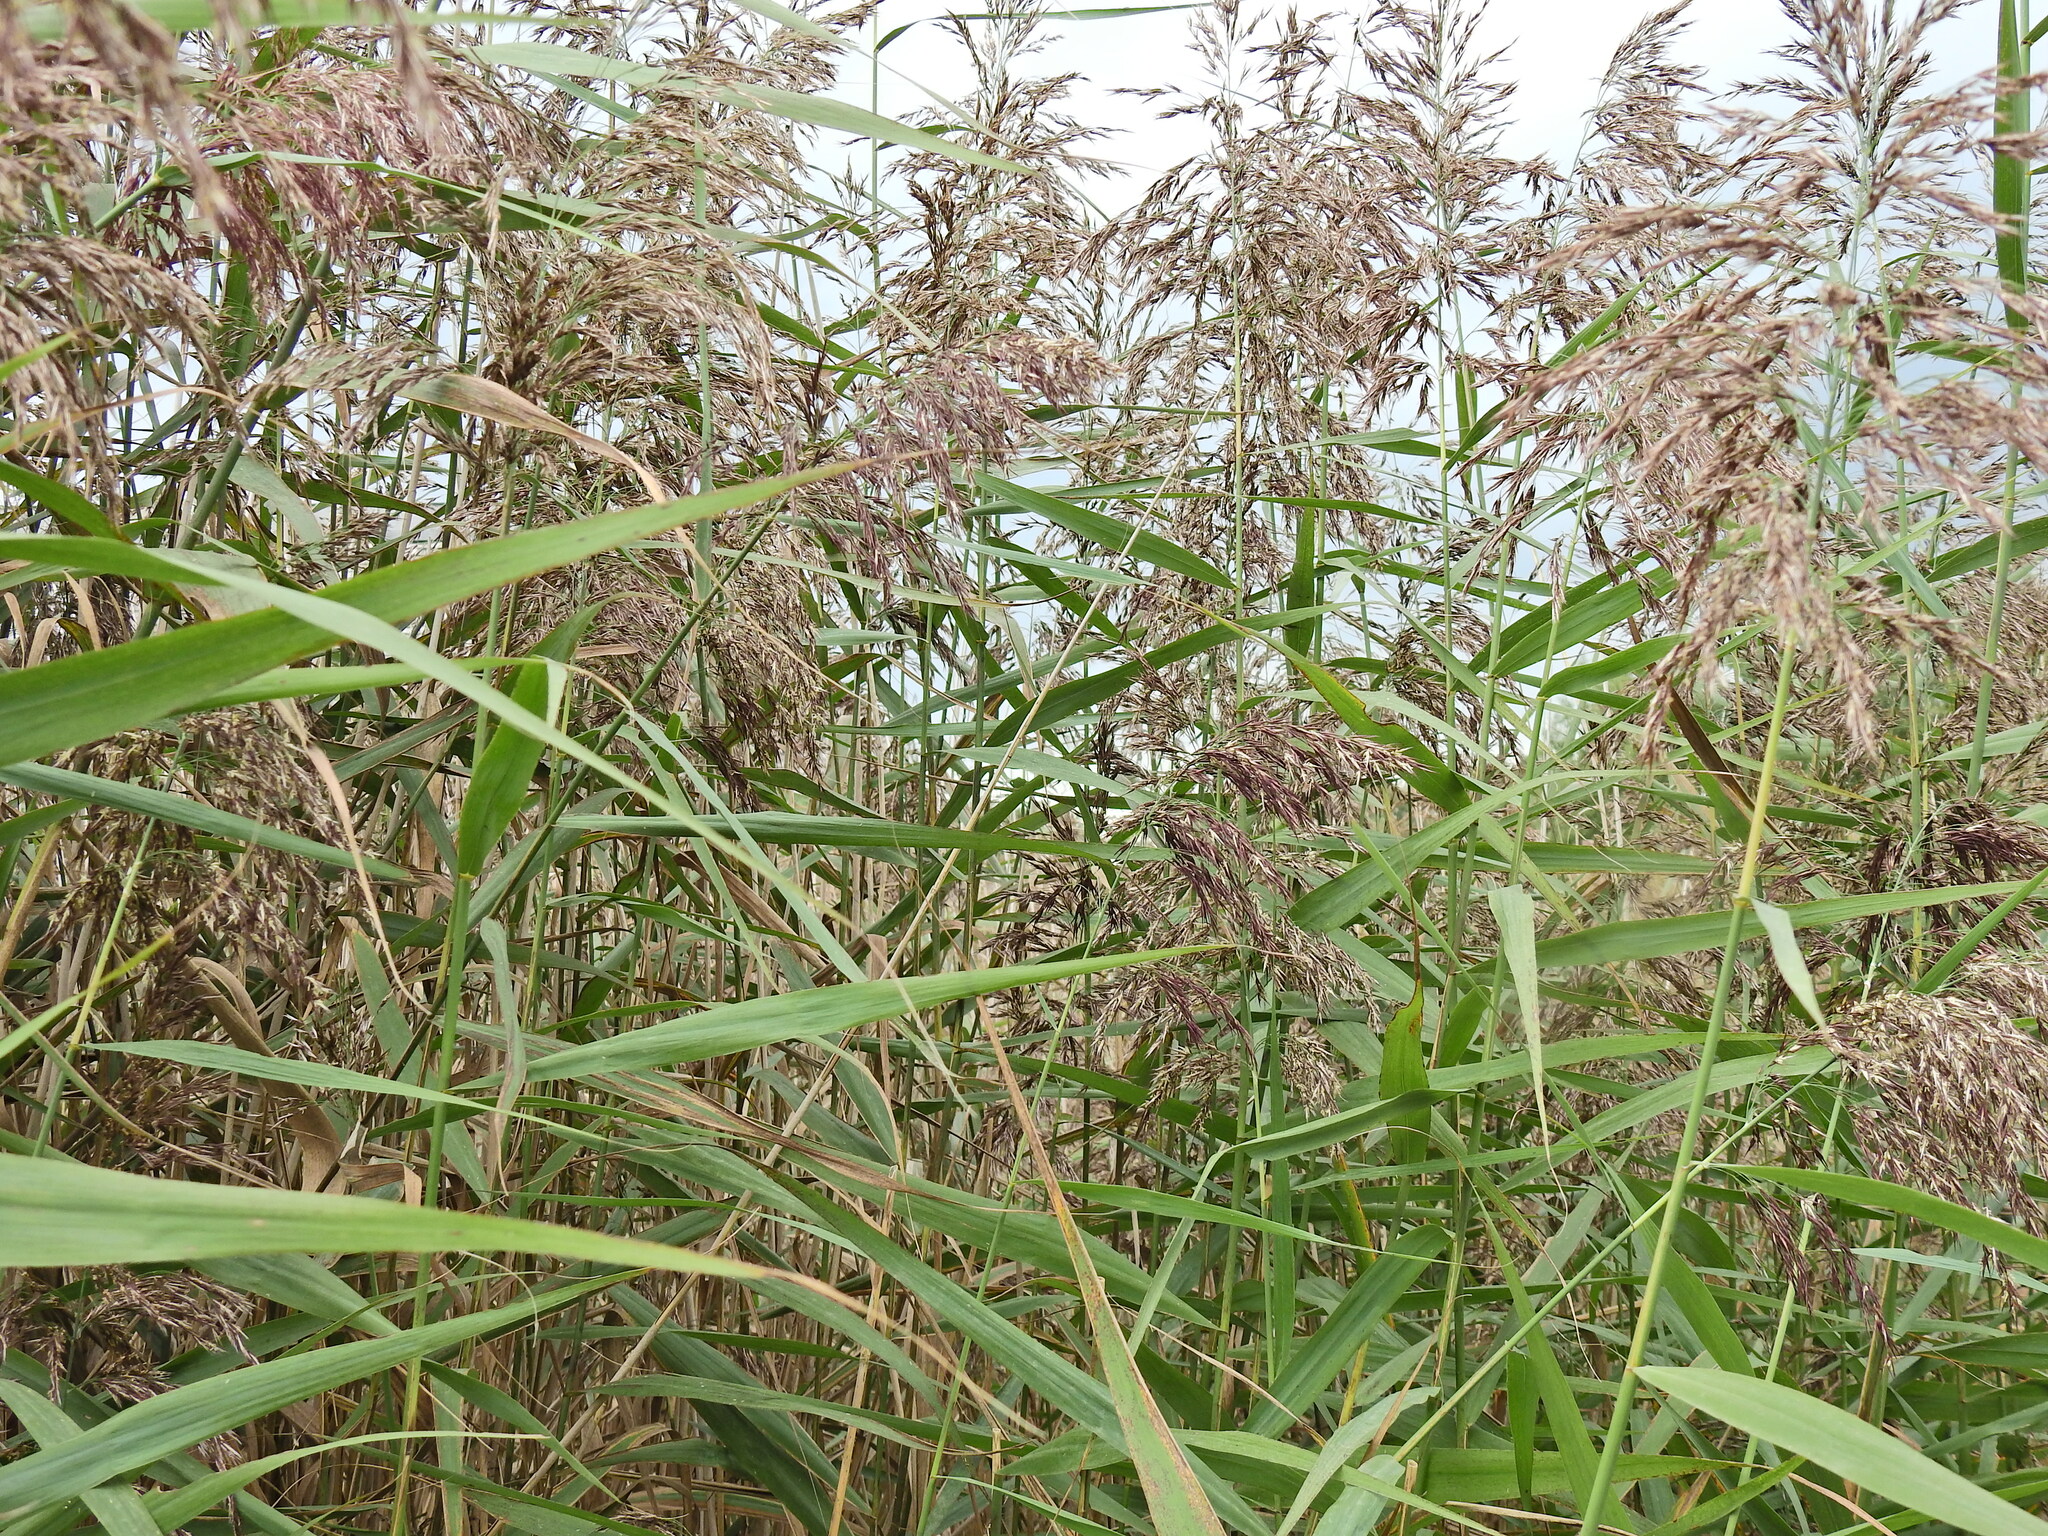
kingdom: Plantae
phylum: Tracheophyta
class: Liliopsida
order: Poales
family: Poaceae
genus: Phragmites
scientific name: Phragmites australis
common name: Common reed
